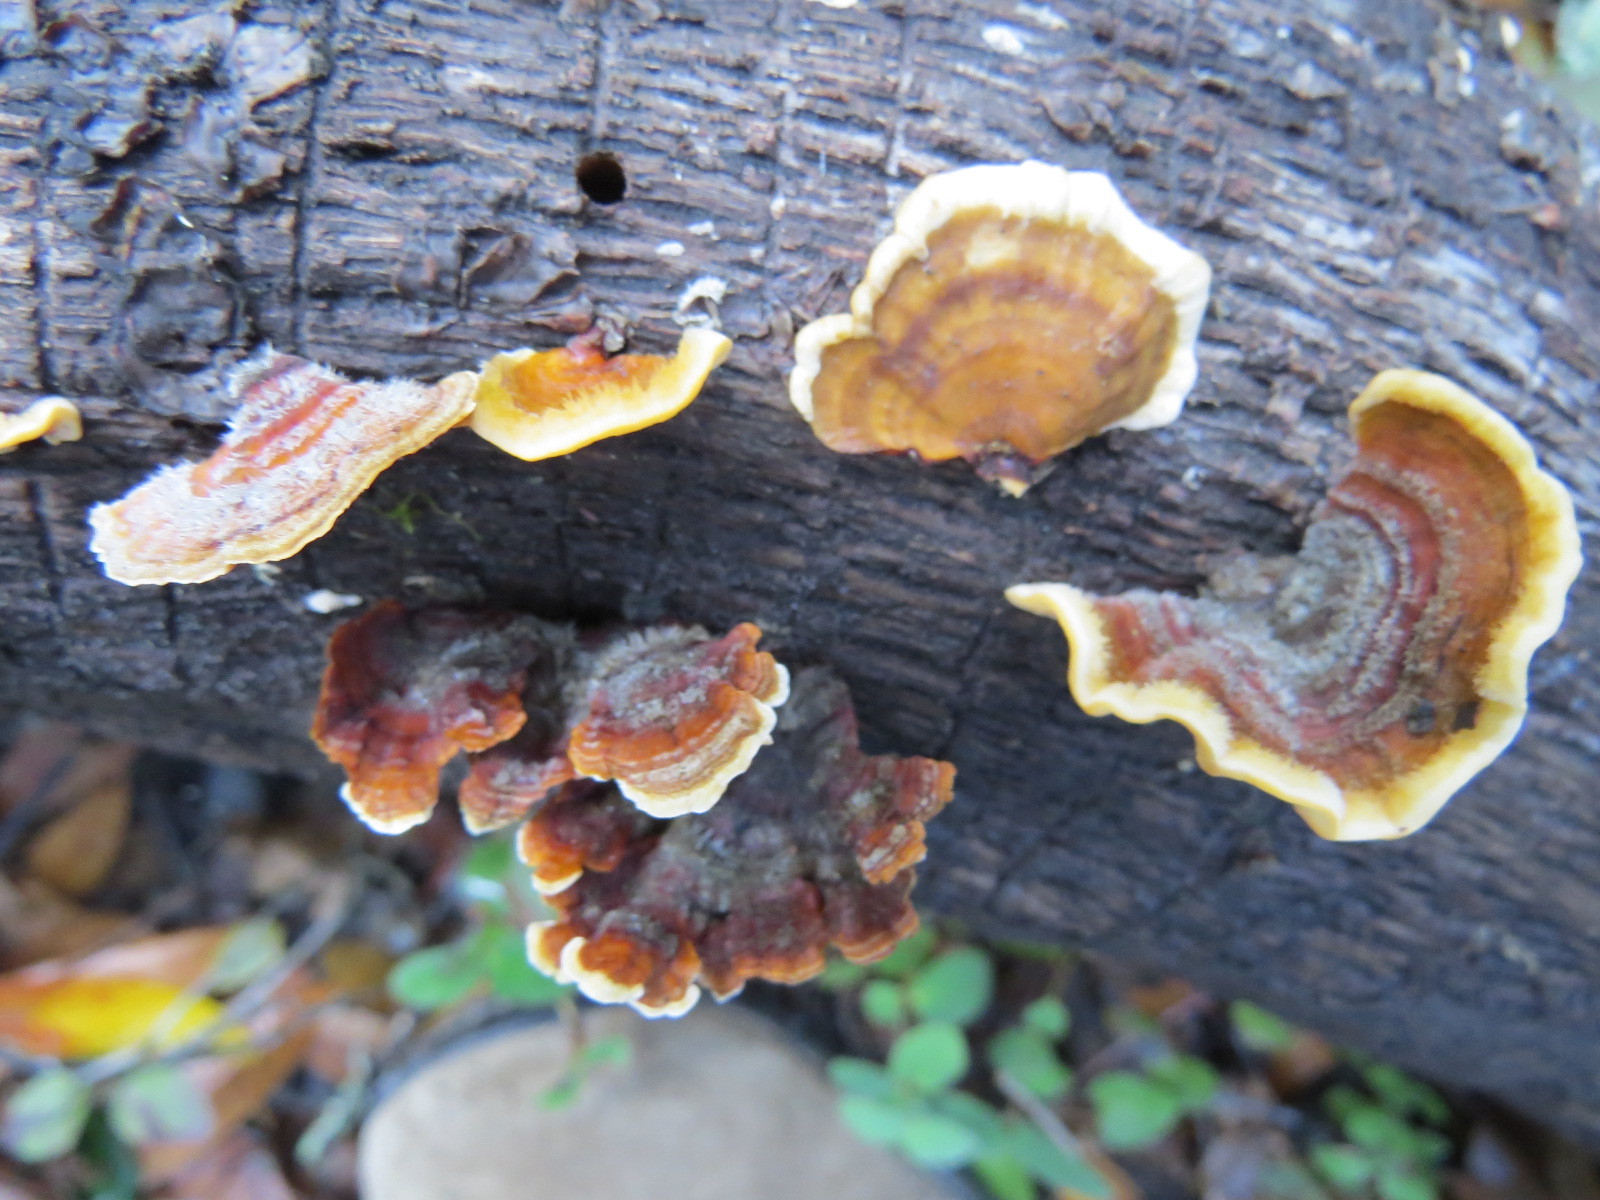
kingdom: Fungi
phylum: Basidiomycota
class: Agaricomycetes
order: Russulales
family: Stereaceae
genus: Stereum
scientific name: Stereum hirsutum
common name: Hairy curtain crust
